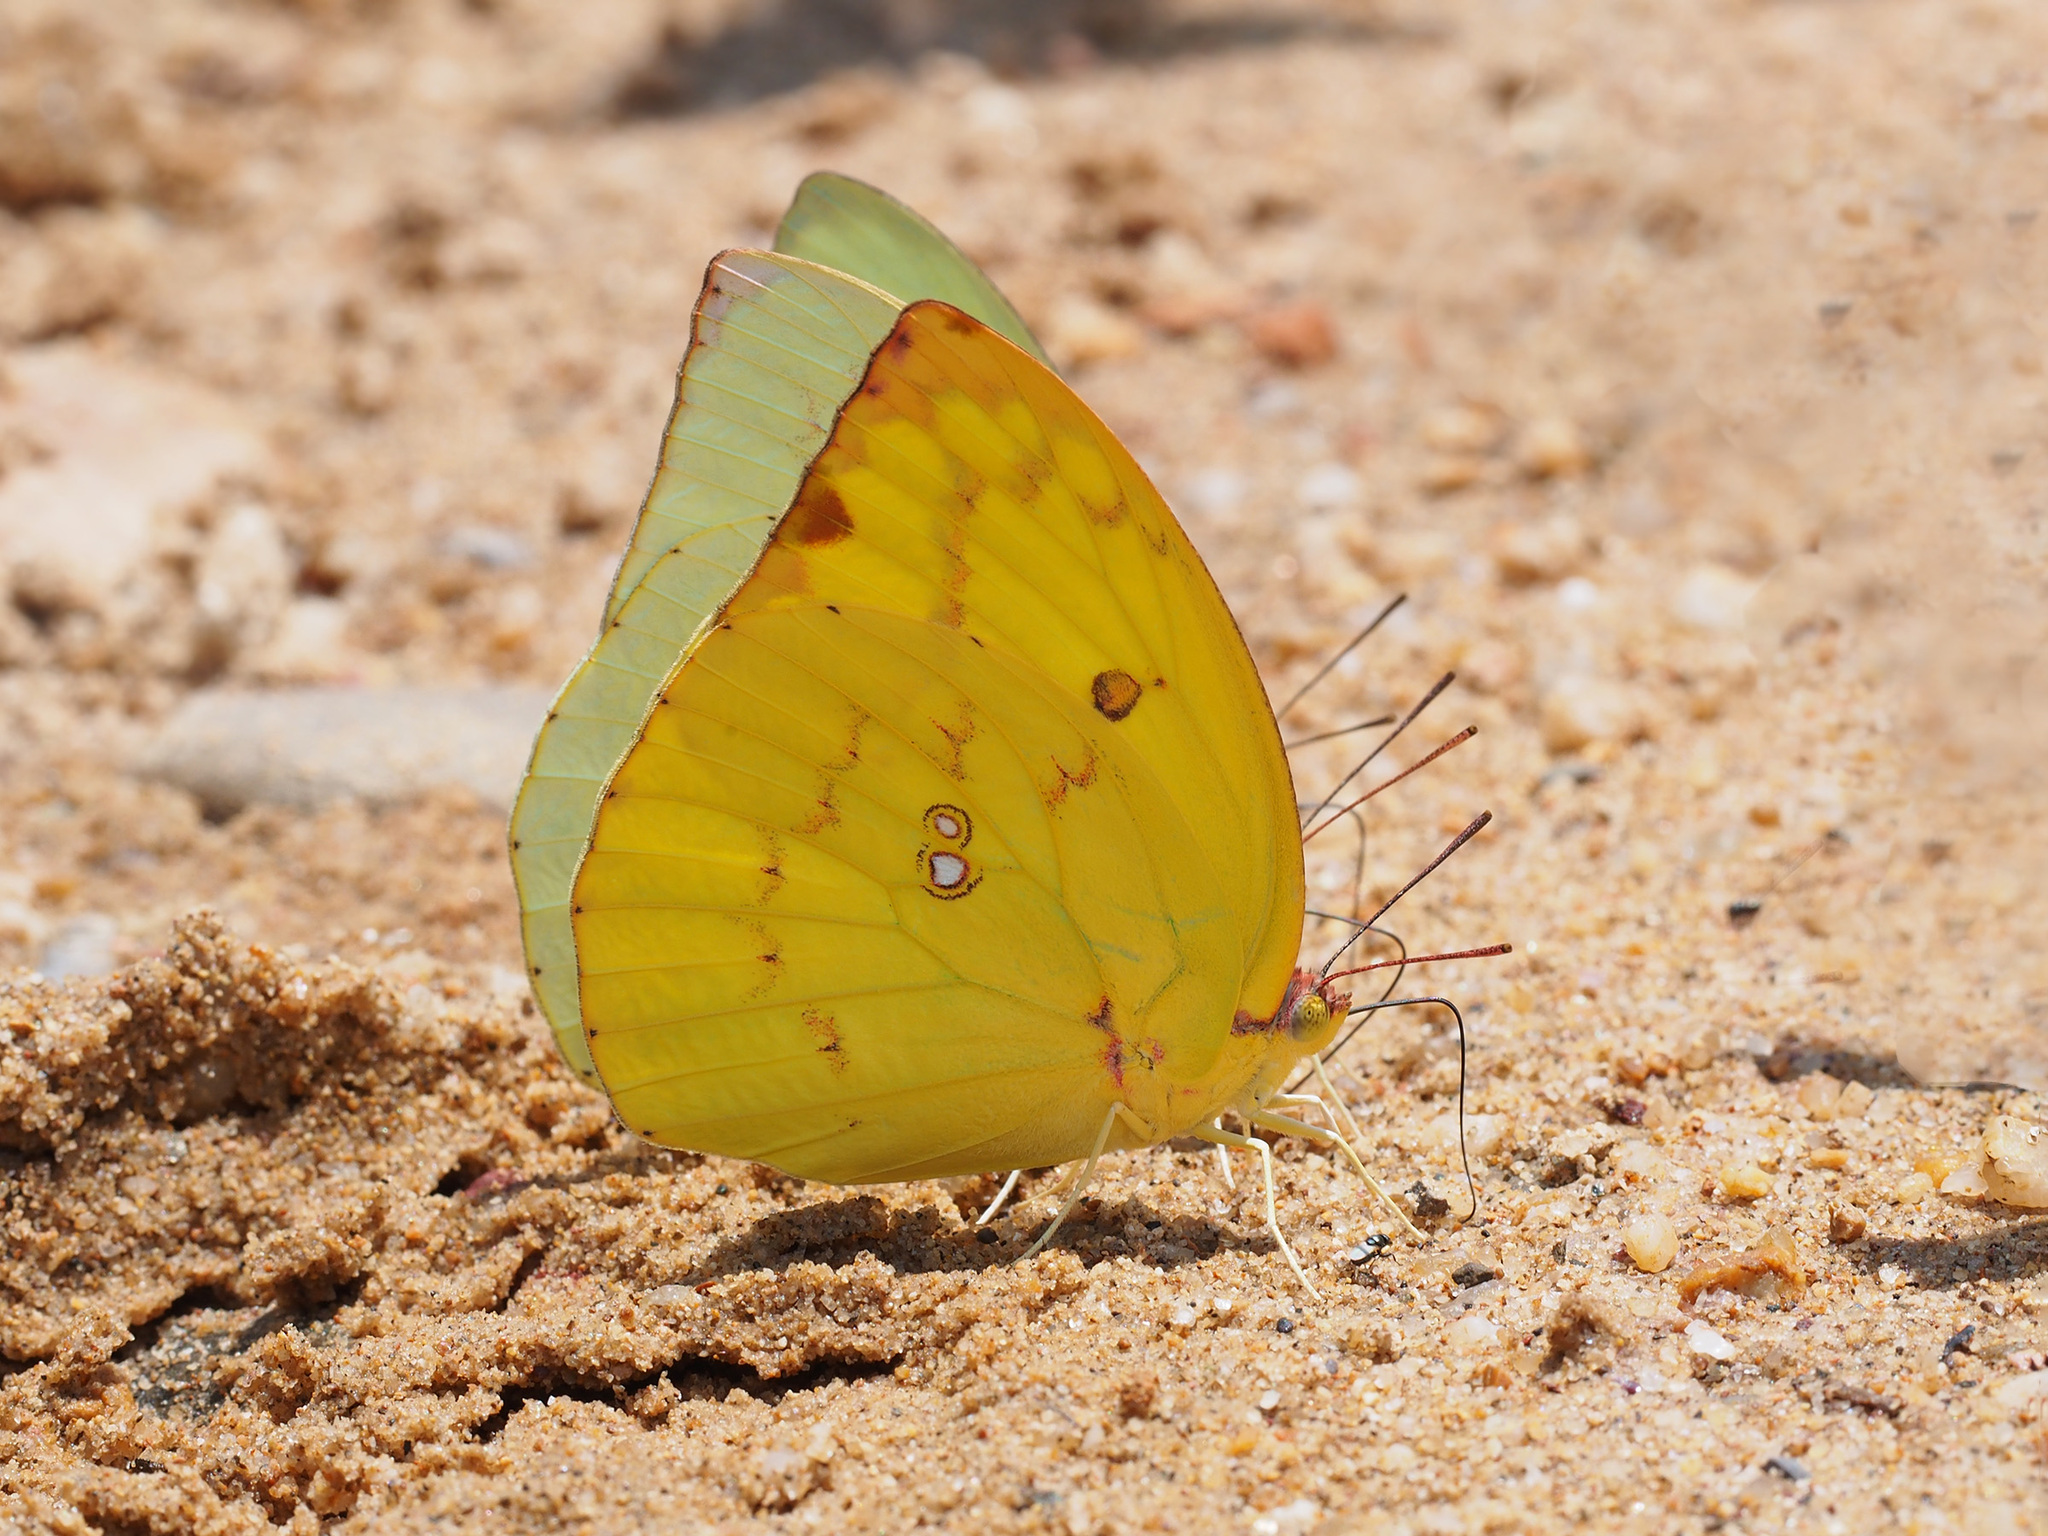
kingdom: Animalia
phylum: Arthropoda
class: Insecta
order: Lepidoptera
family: Pieridae
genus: Catopsilia
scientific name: Catopsilia pomona
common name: Common emigrant
